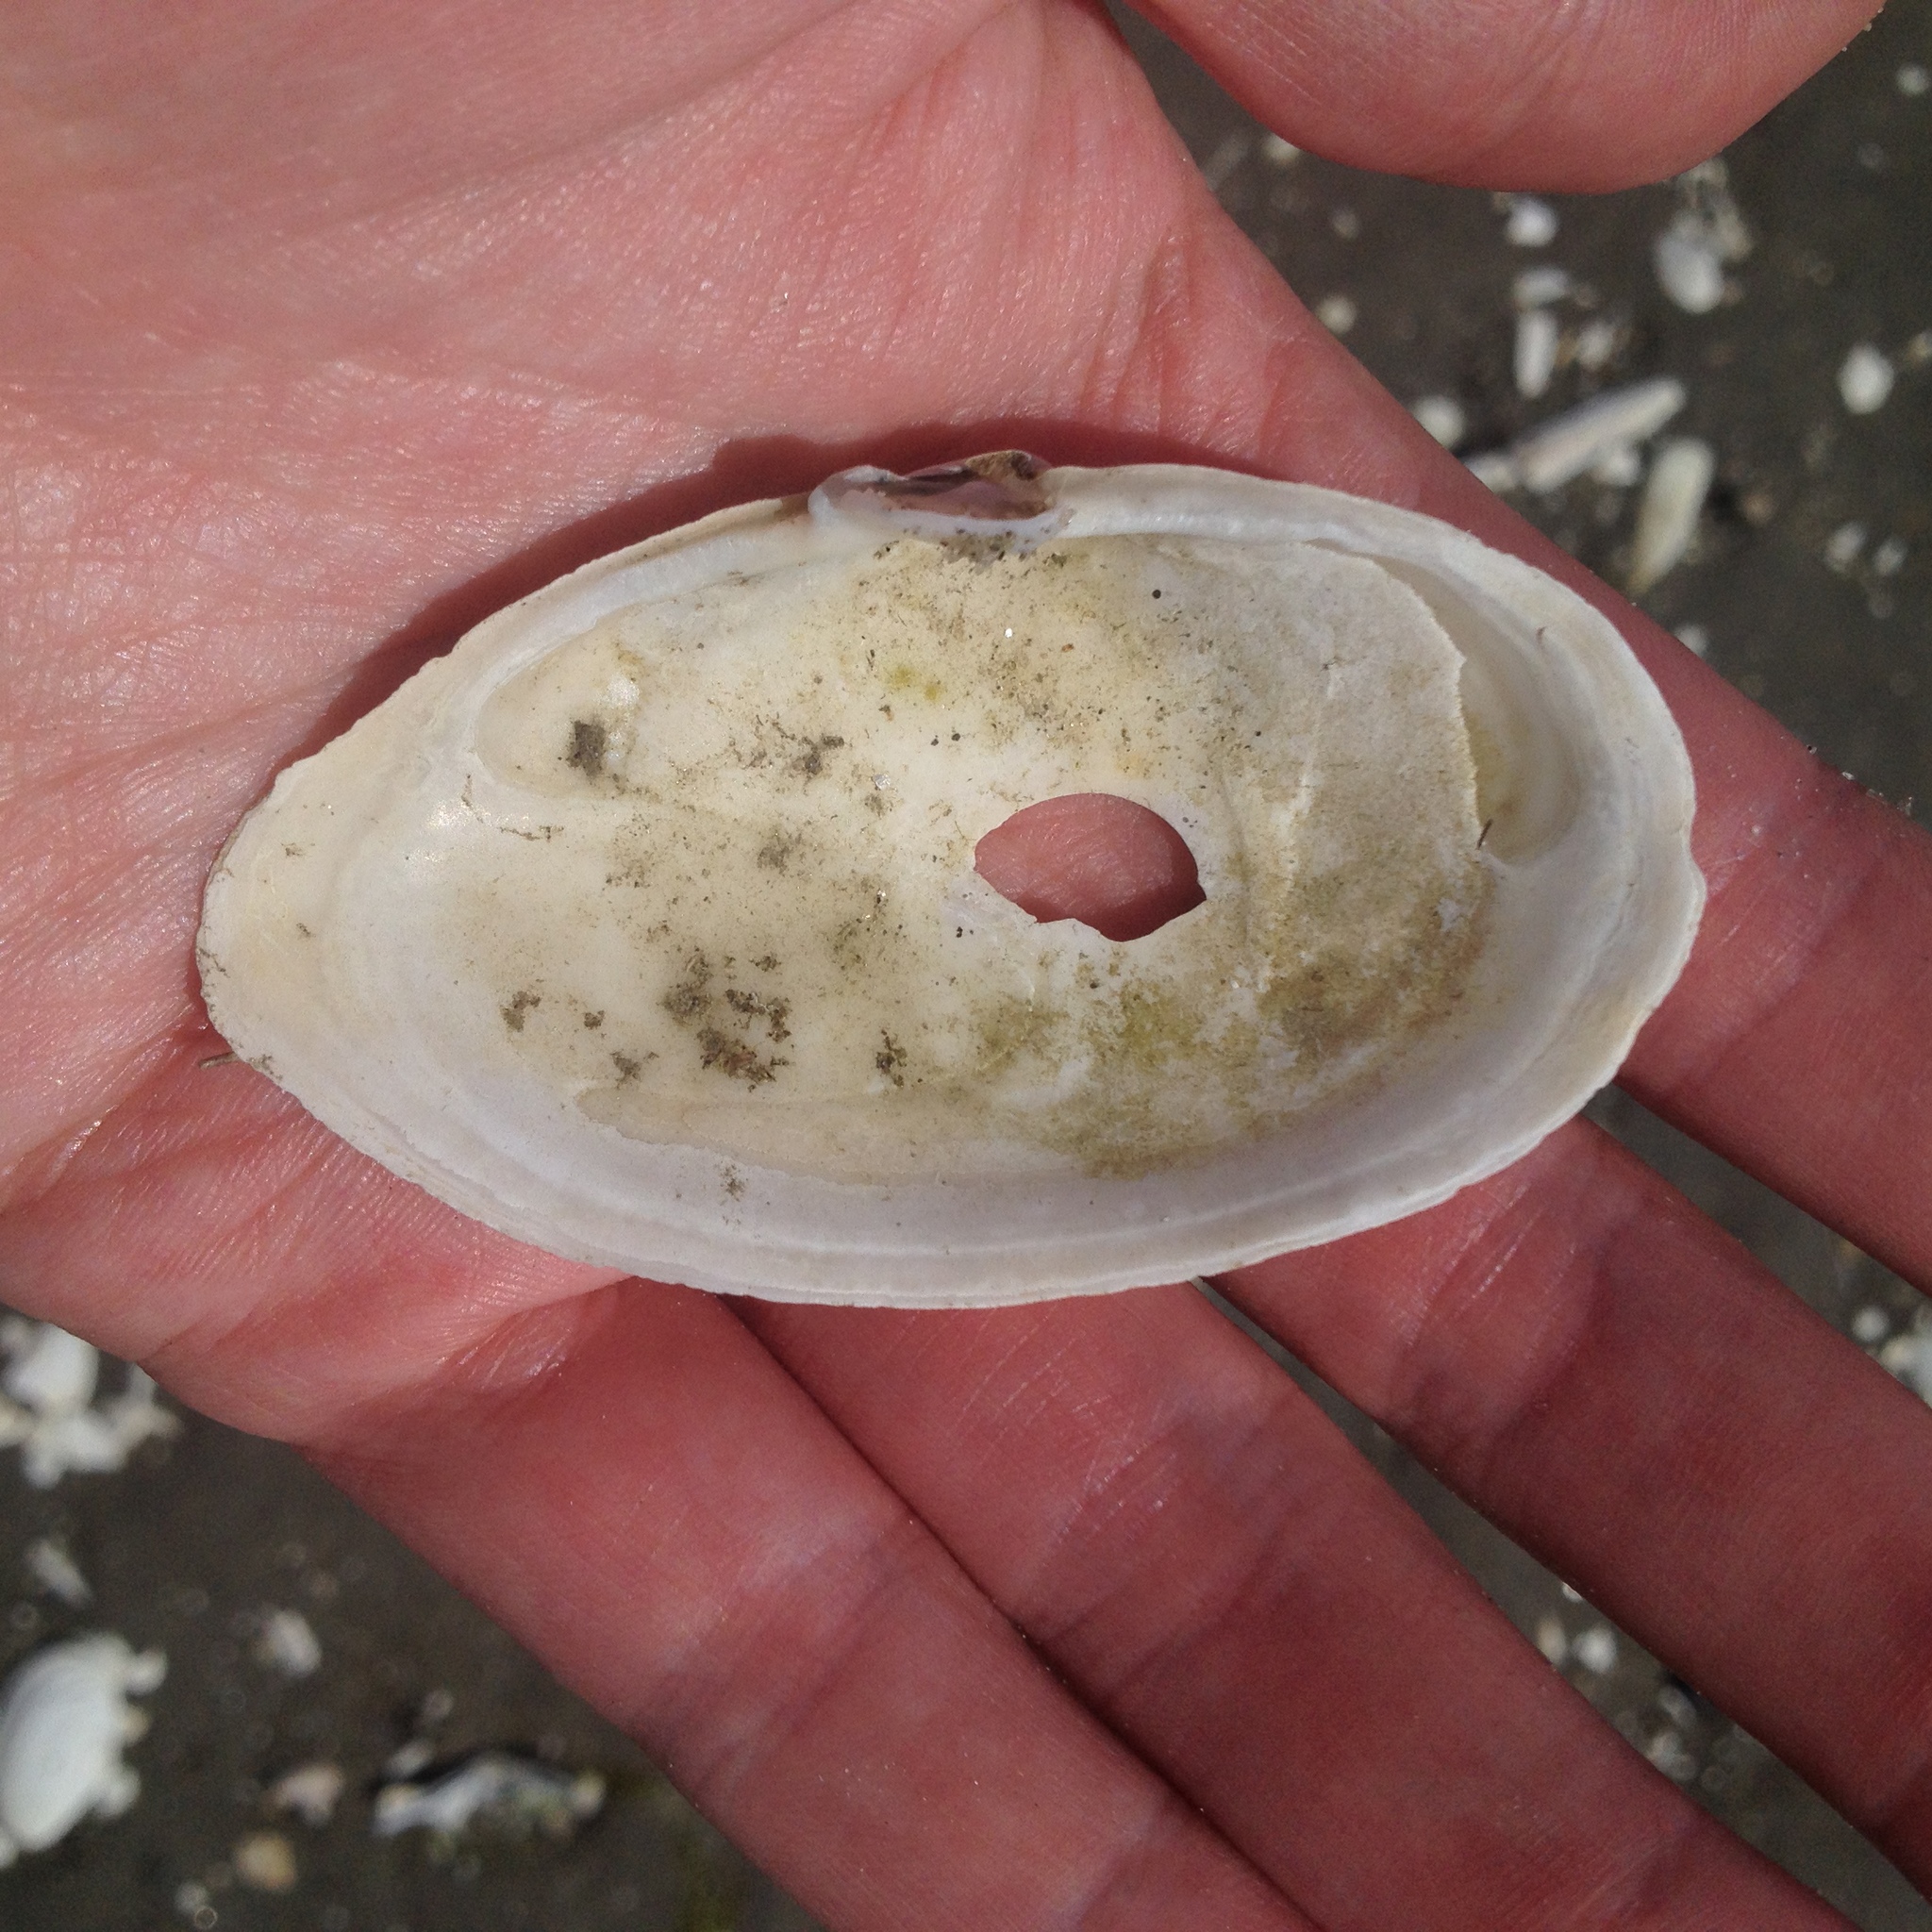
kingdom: Animalia
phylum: Mollusca
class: Bivalvia
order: Myida
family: Myidae
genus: Mya
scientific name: Mya arenaria
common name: Soft-shelled clam
